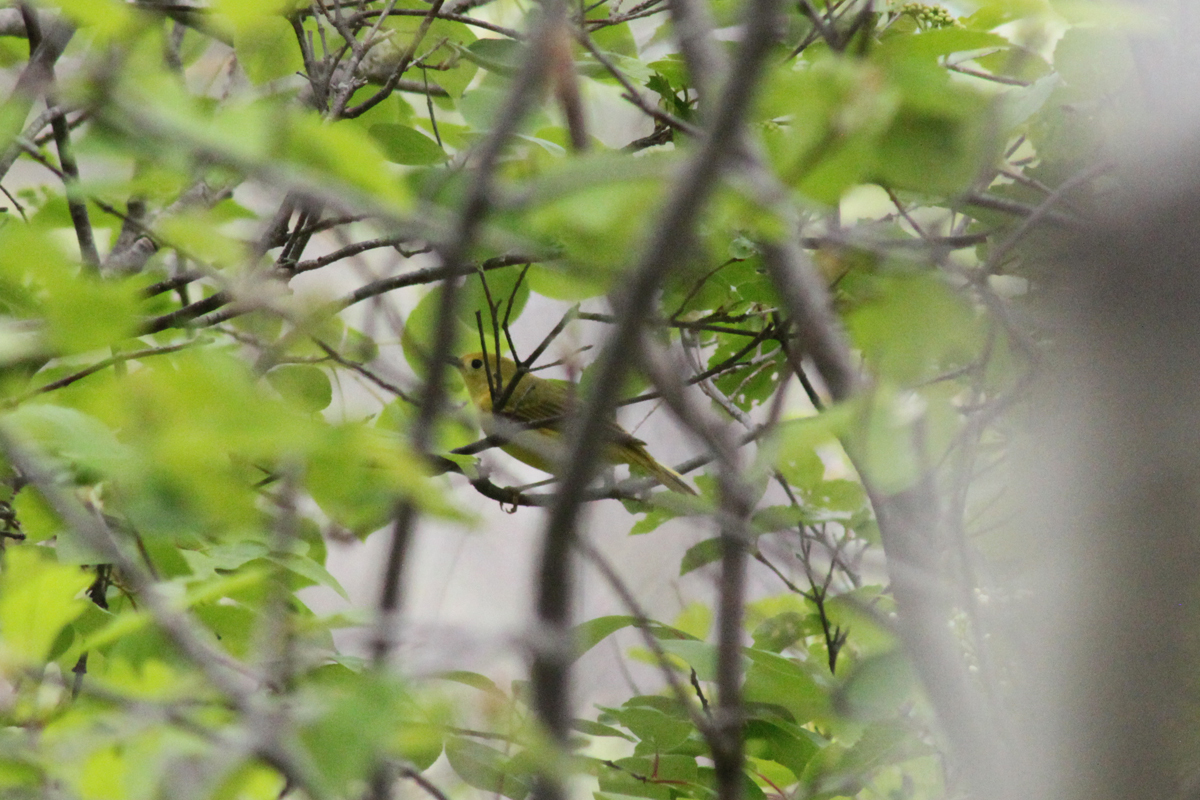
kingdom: Animalia
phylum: Chordata
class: Aves
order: Passeriformes
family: Parulidae
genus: Setophaga
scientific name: Setophaga petechia
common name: Yellow warbler
